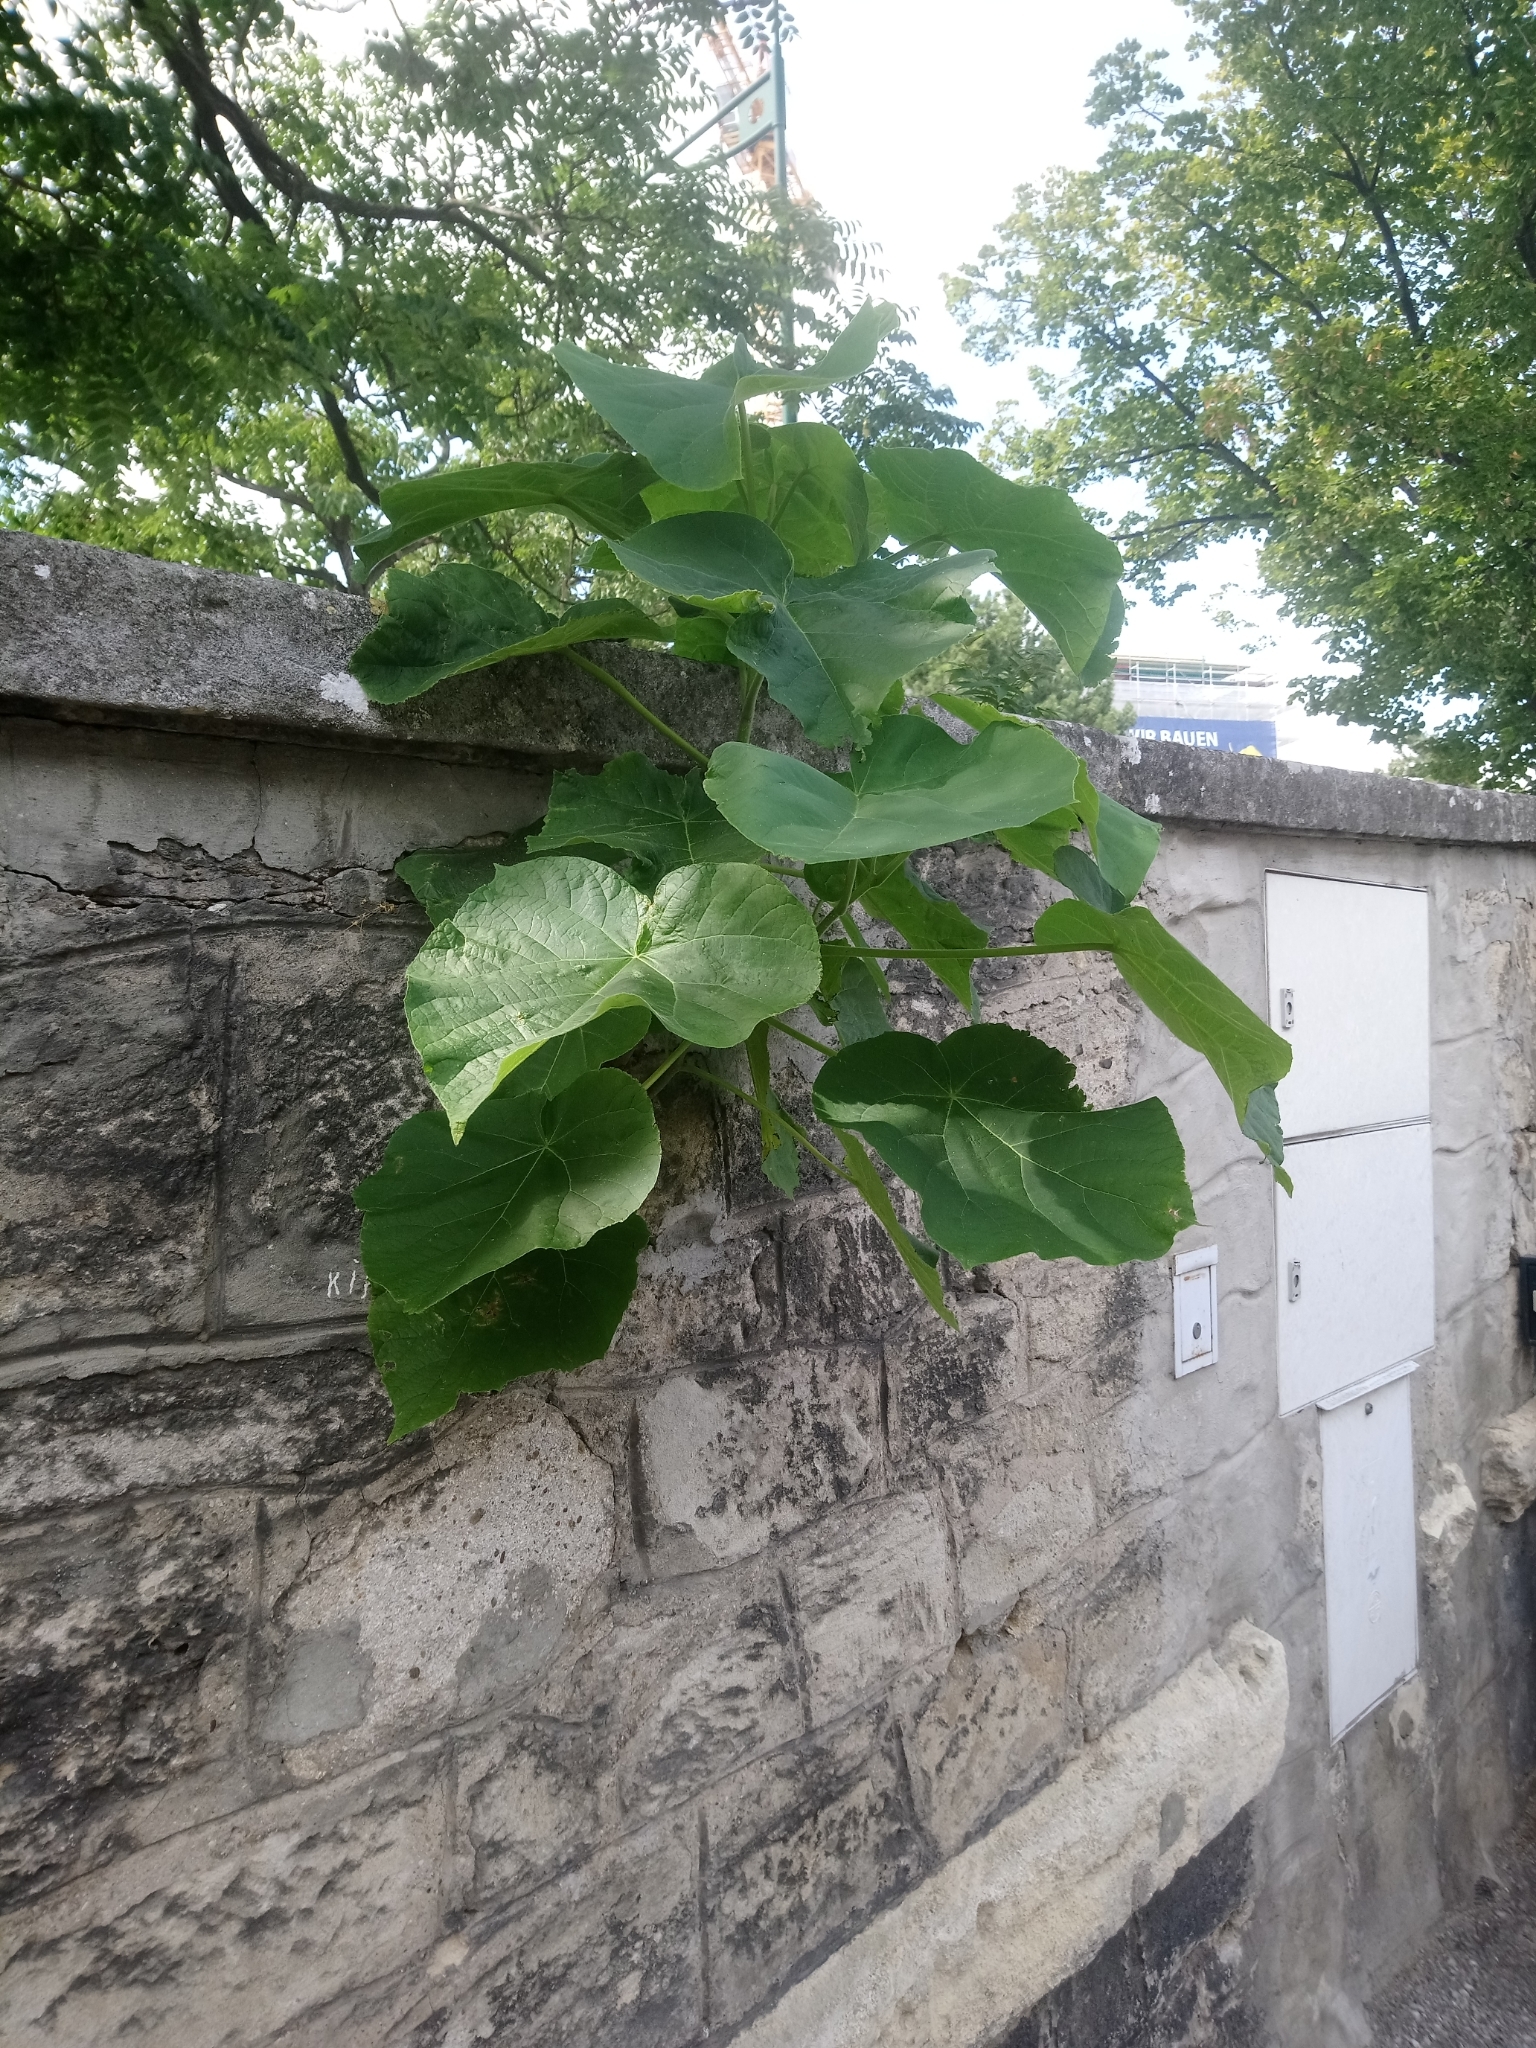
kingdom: Plantae
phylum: Tracheophyta
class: Magnoliopsida
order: Lamiales
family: Paulowniaceae
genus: Paulownia
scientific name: Paulownia tomentosa
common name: Foxglove-tree
